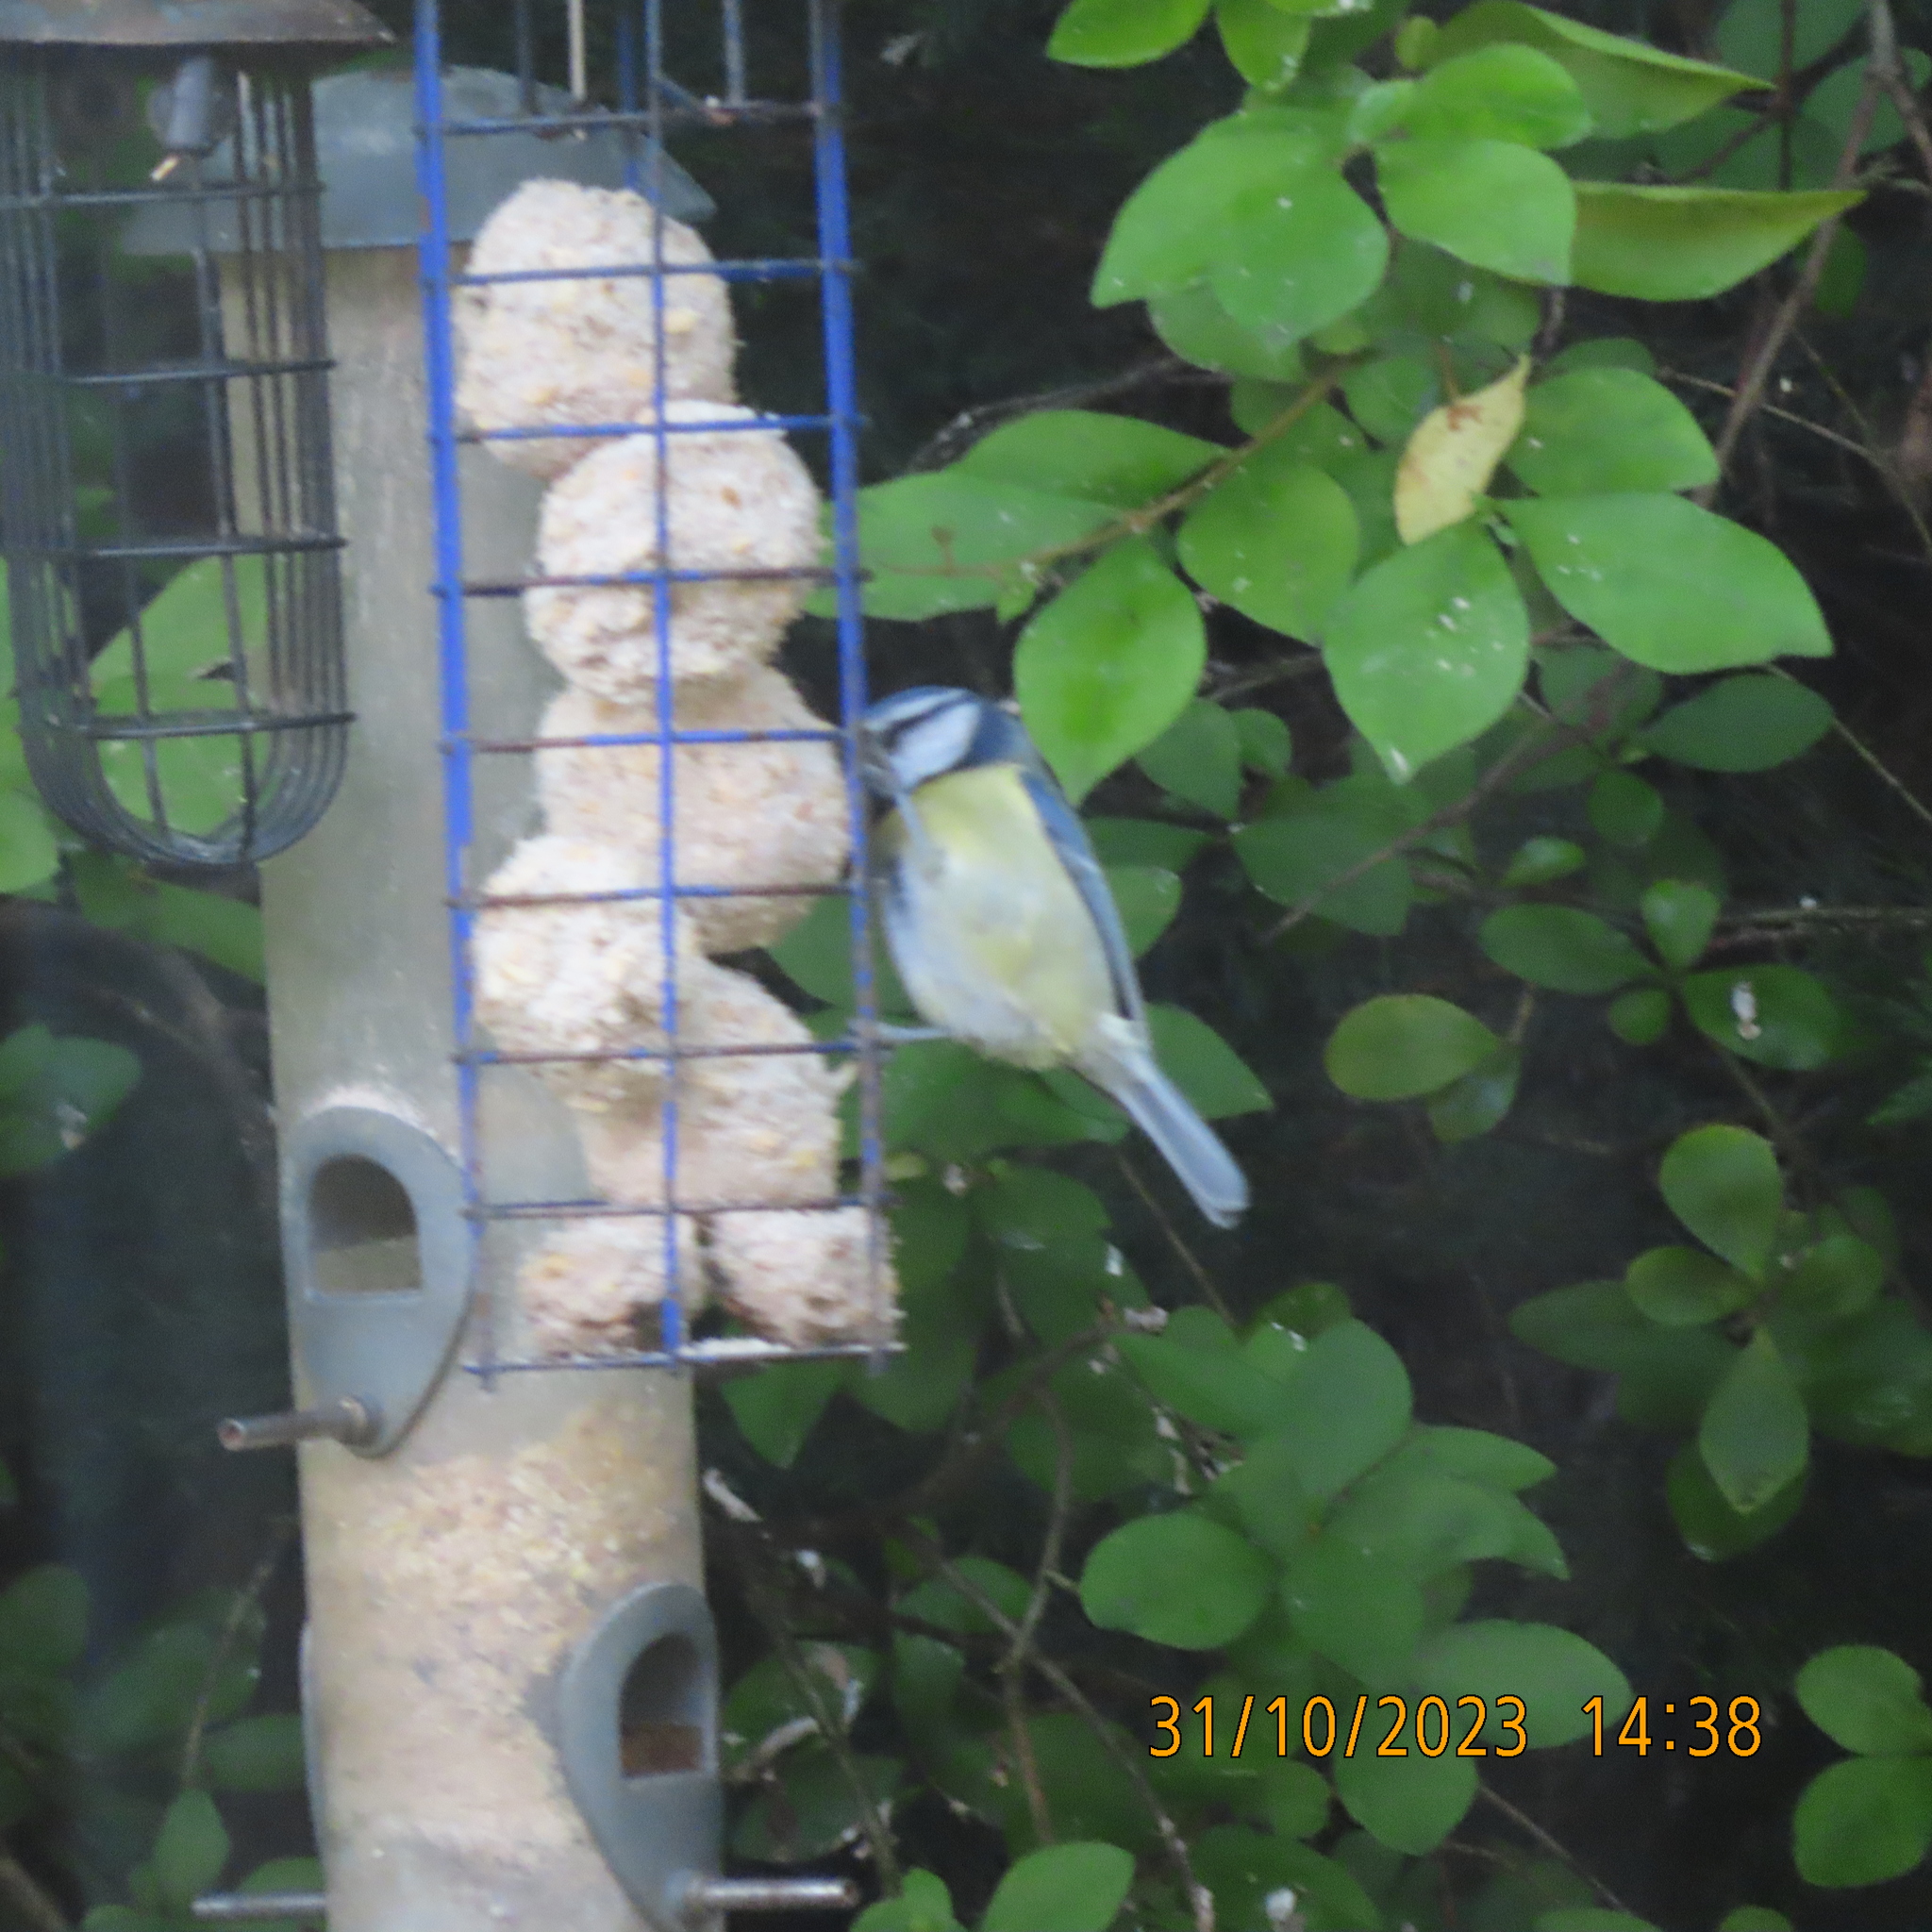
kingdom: Animalia
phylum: Chordata
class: Aves
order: Passeriformes
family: Paridae
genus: Cyanistes
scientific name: Cyanistes caeruleus
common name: Eurasian blue tit
